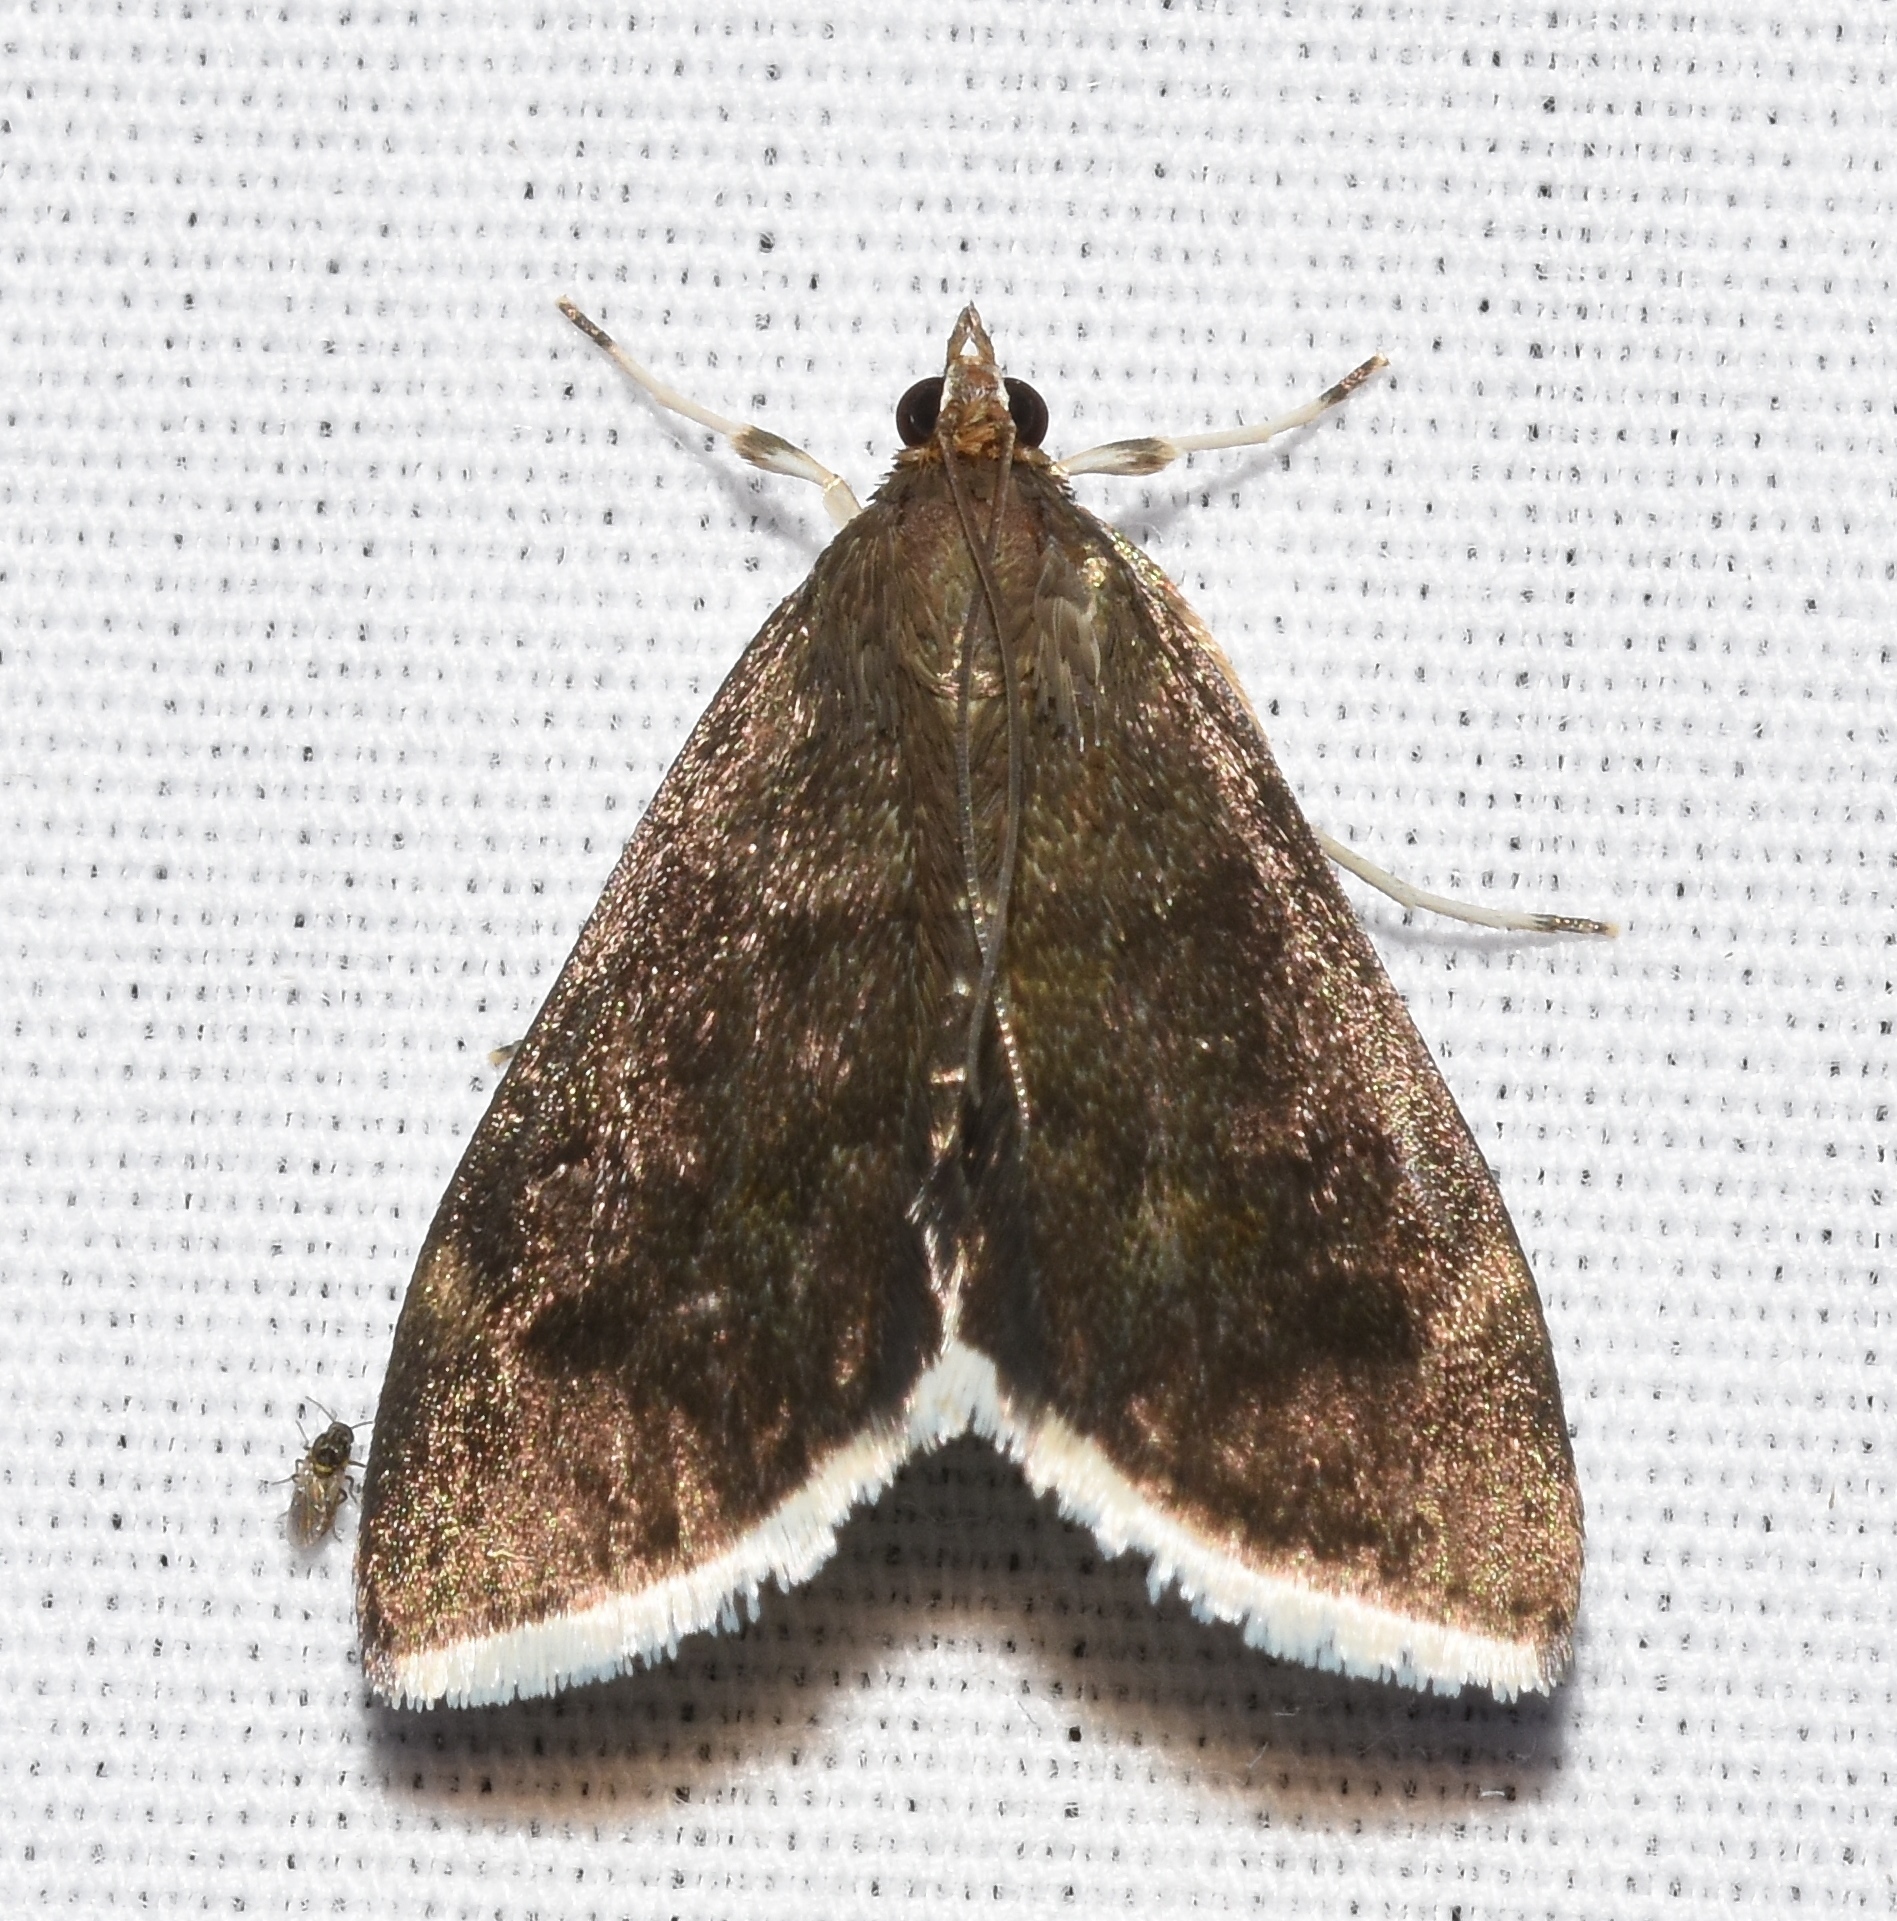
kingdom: Animalia
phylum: Arthropoda
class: Insecta
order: Lepidoptera
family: Crambidae
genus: Pyrausta
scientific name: Pyrausta niveicilialis
